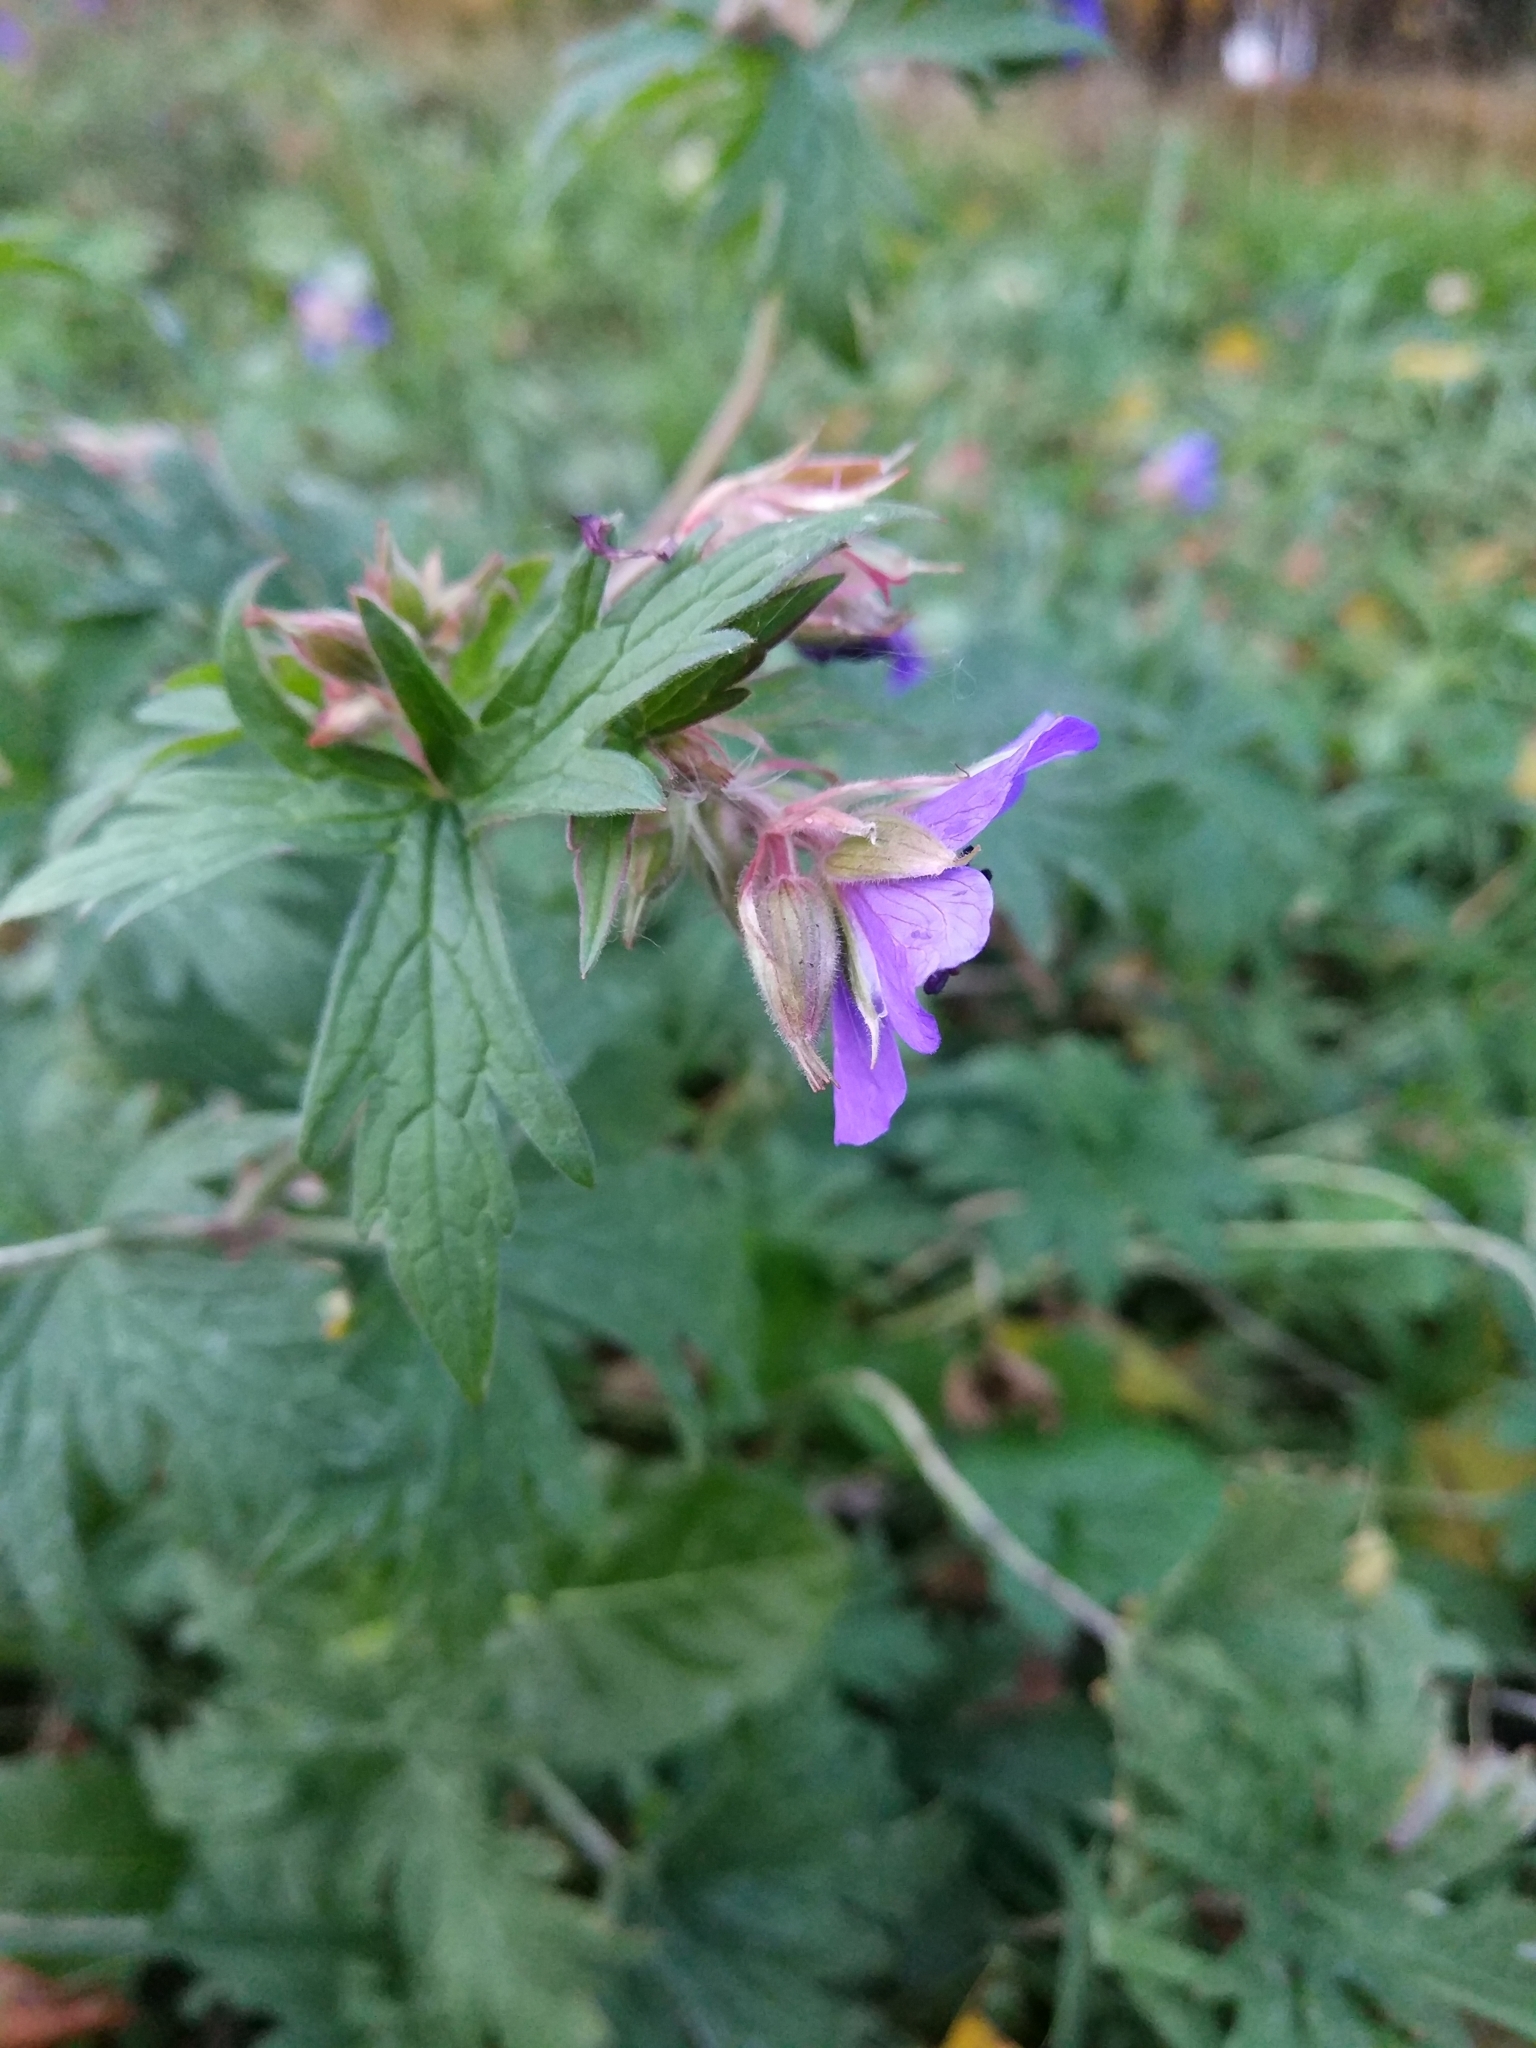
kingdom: Plantae
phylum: Tracheophyta
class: Magnoliopsida
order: Geraniales
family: Geraniaceae
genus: Geranium
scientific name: Geranium pratense
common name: Meadow crane's-bill
